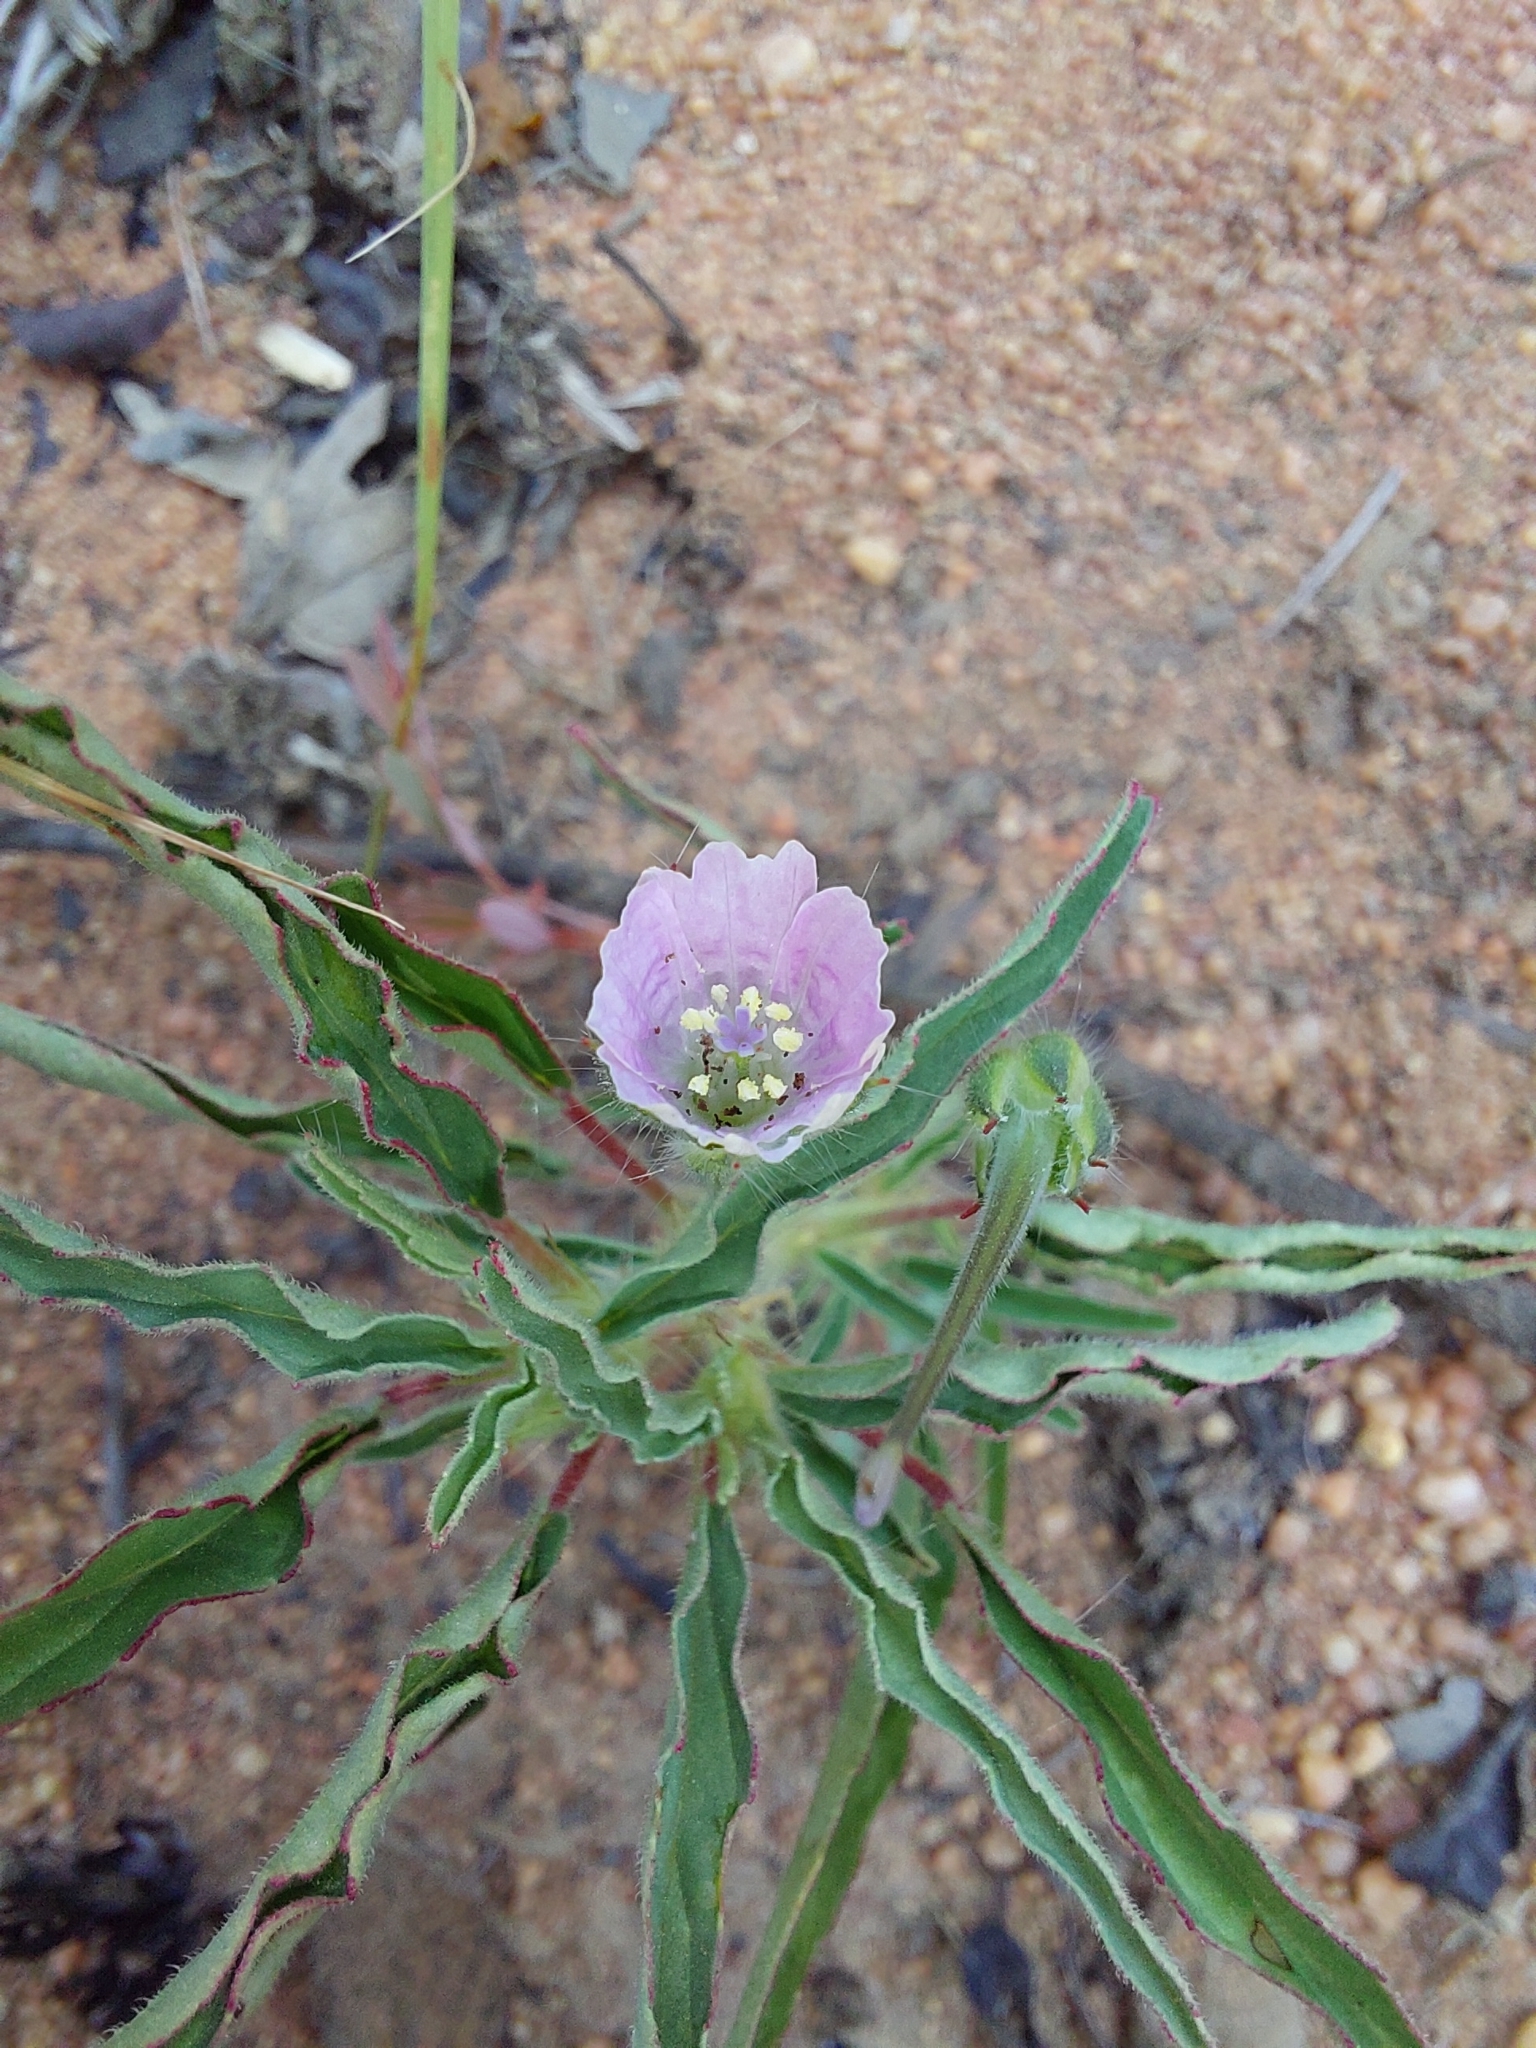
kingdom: Plantae
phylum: Tracheophyta
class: Magnoliopsida
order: Geraniales
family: Geraniaceae
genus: Monsonia
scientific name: Monsonia angustifolia
